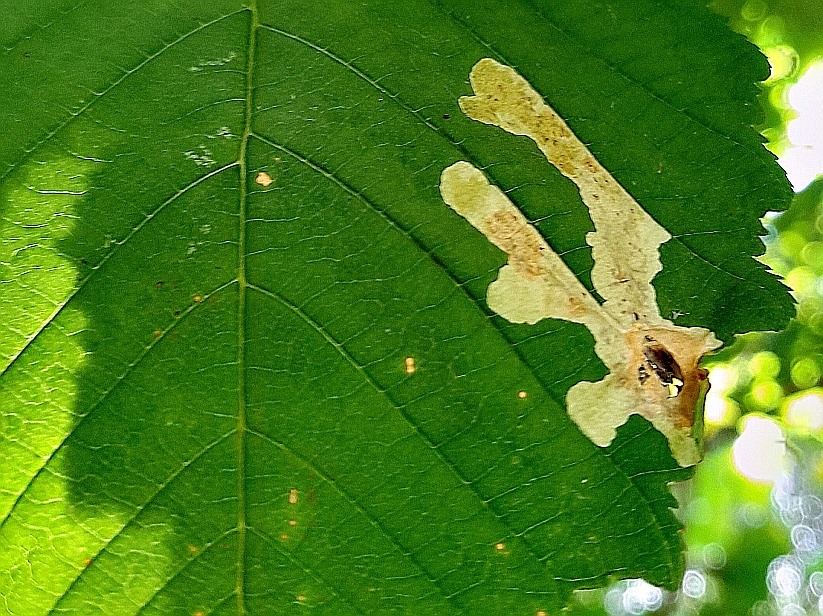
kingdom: Animalia
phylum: Arthropoda
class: Insecta
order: Lepidoptera
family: Gracillariidae
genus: Cameraria
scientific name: Cameraria ohridella
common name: Horse-chestnut leaf-miner
